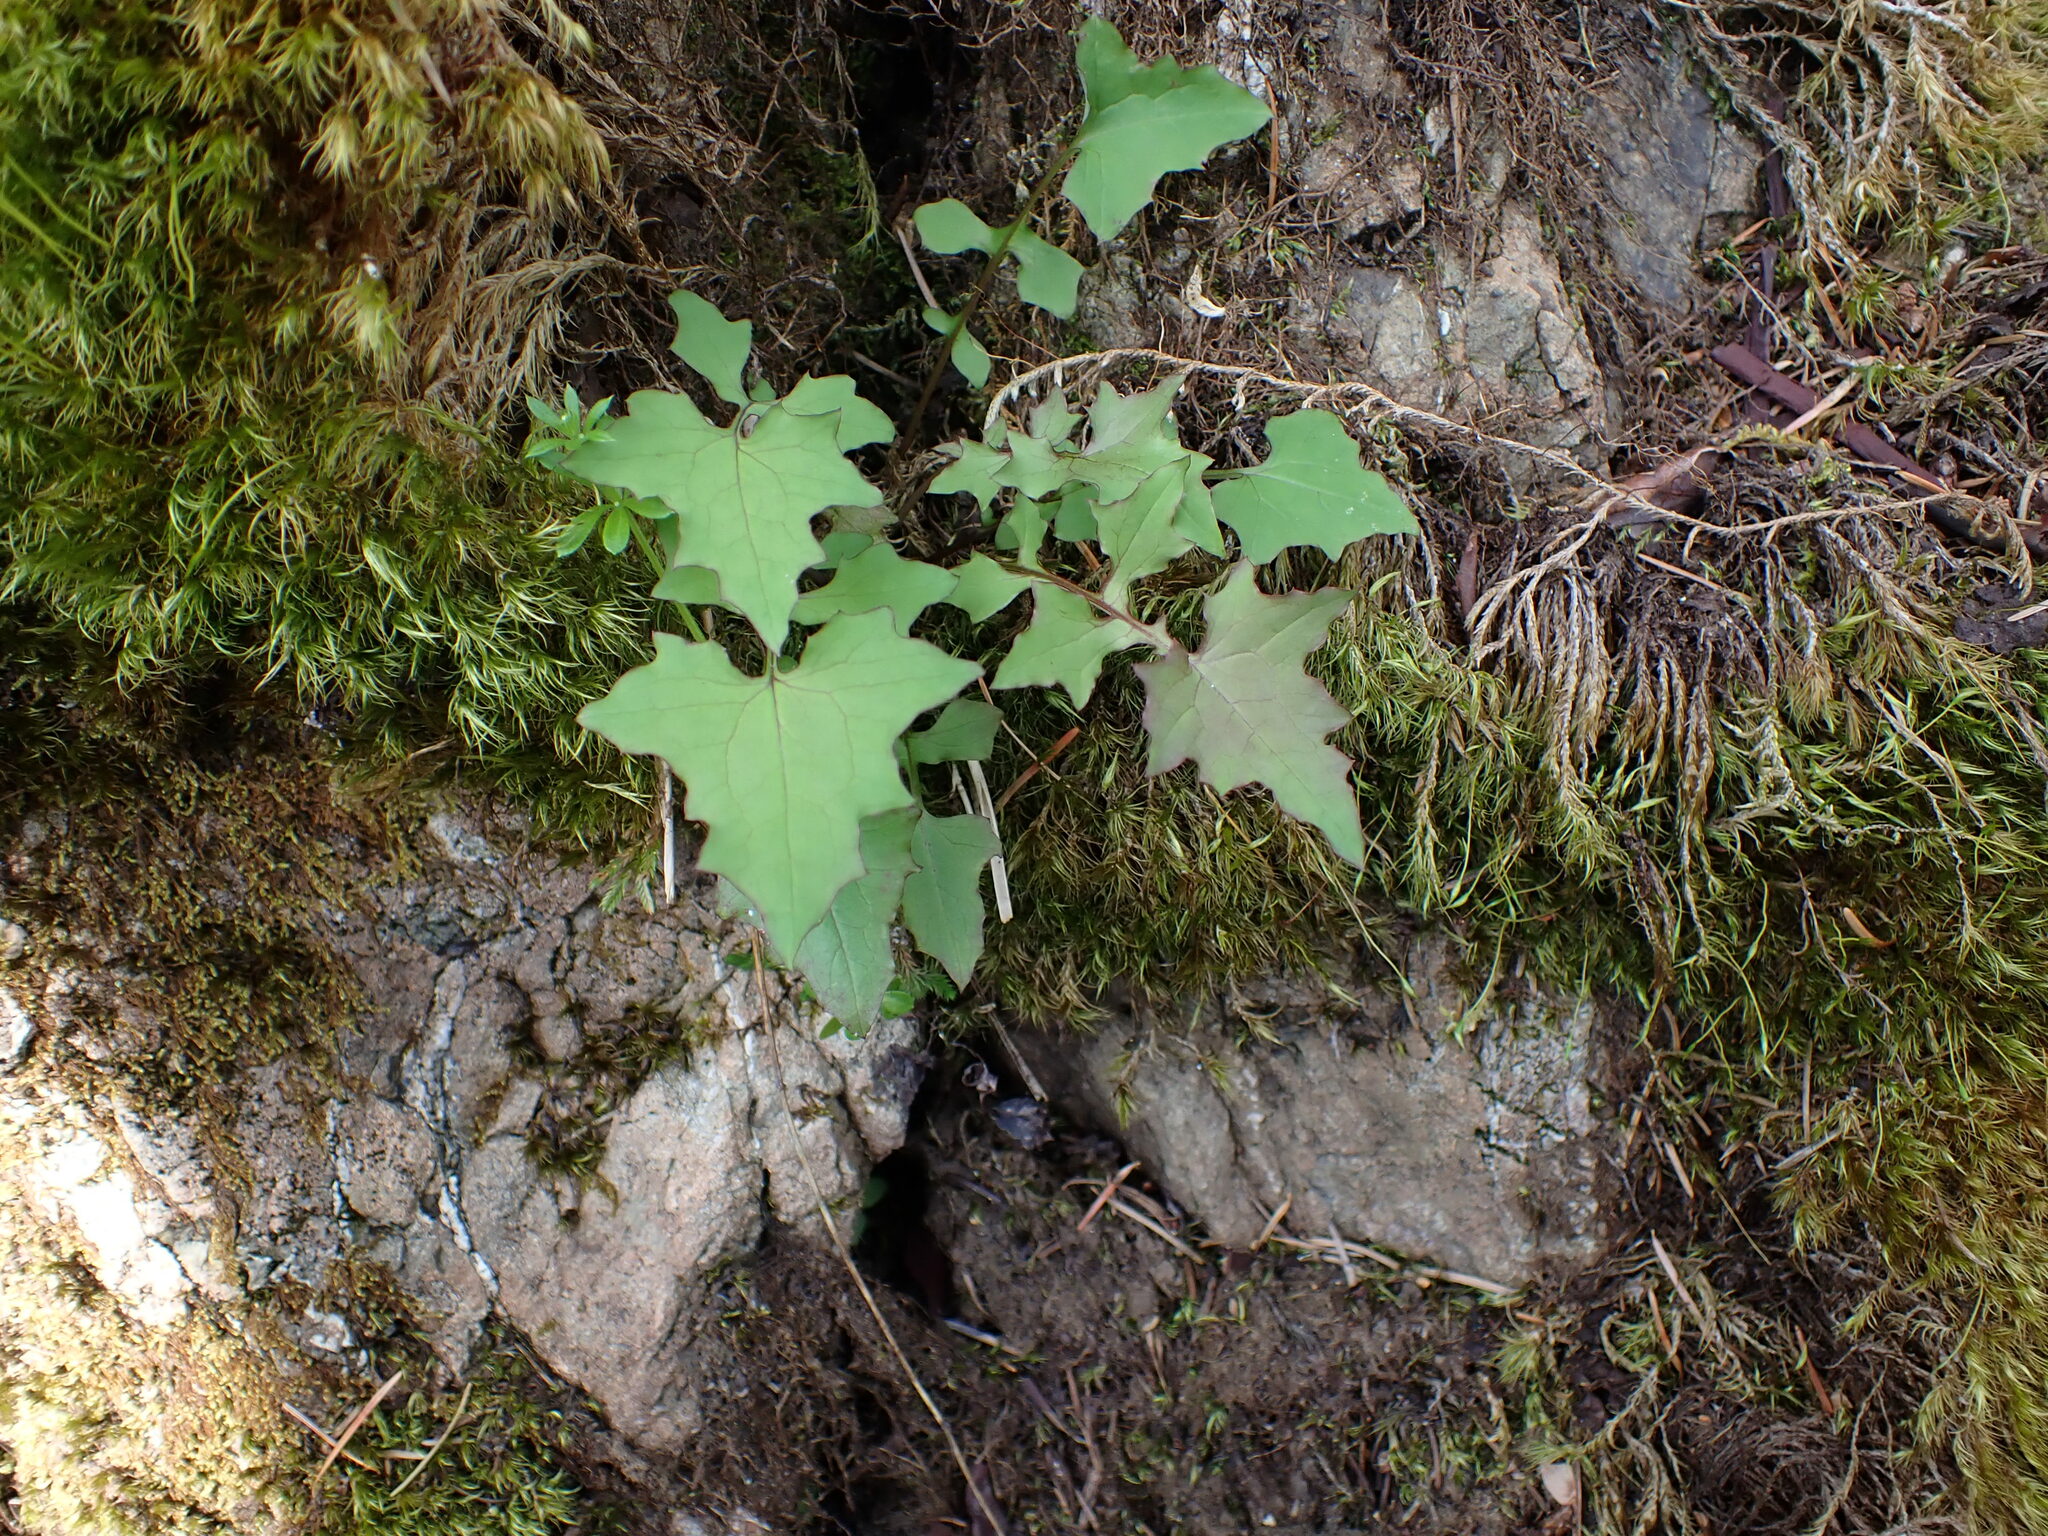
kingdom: Plantae
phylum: Tracheophyta
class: Magnoliopsida
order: Asterales
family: Asteraceae
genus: Mycelis
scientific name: Mycelis muralis
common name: Wall lettuce
